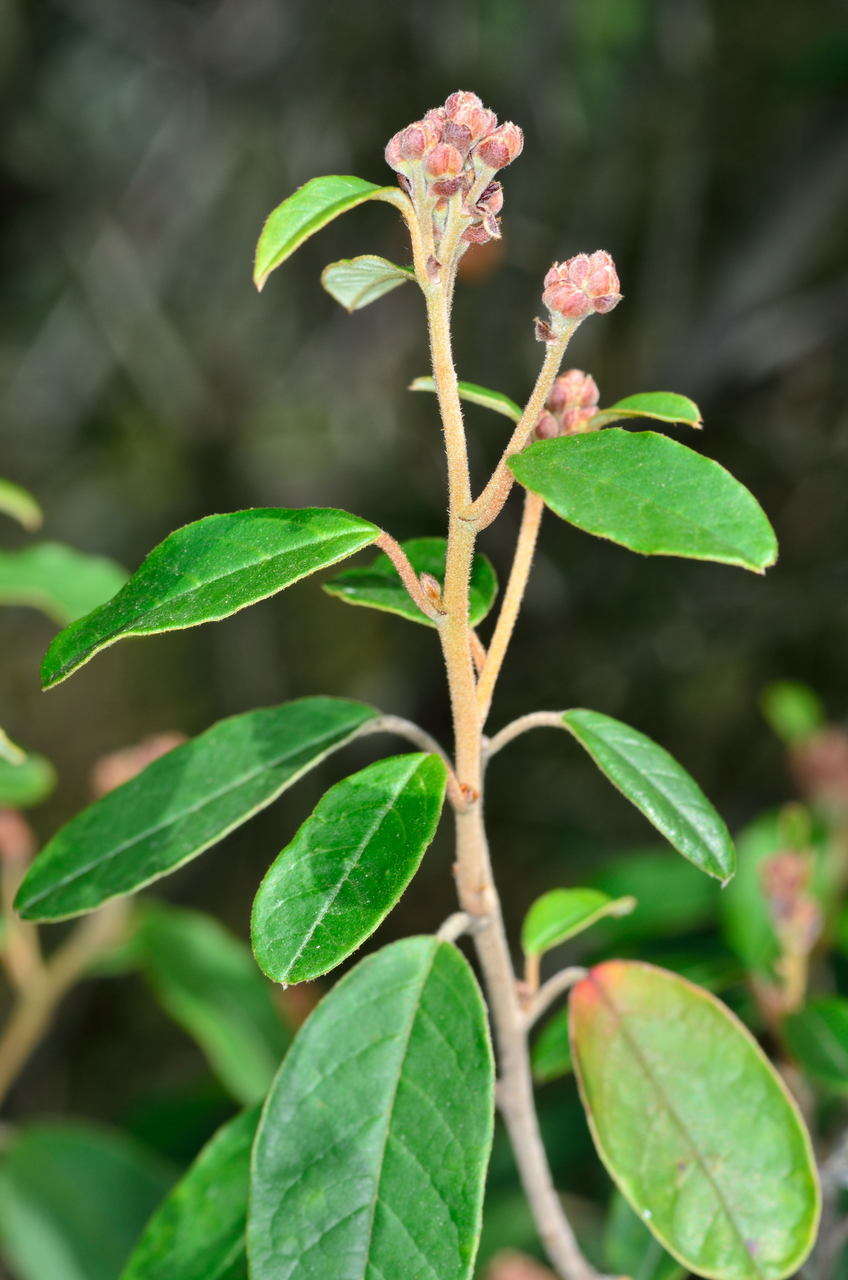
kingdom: Plantae
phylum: Tracheophyta
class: Magnoliopsida
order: Rosales
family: Rhamnaceae
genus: Pomaderris
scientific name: Pomaderris elliptica
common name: Yellow-dogwood
